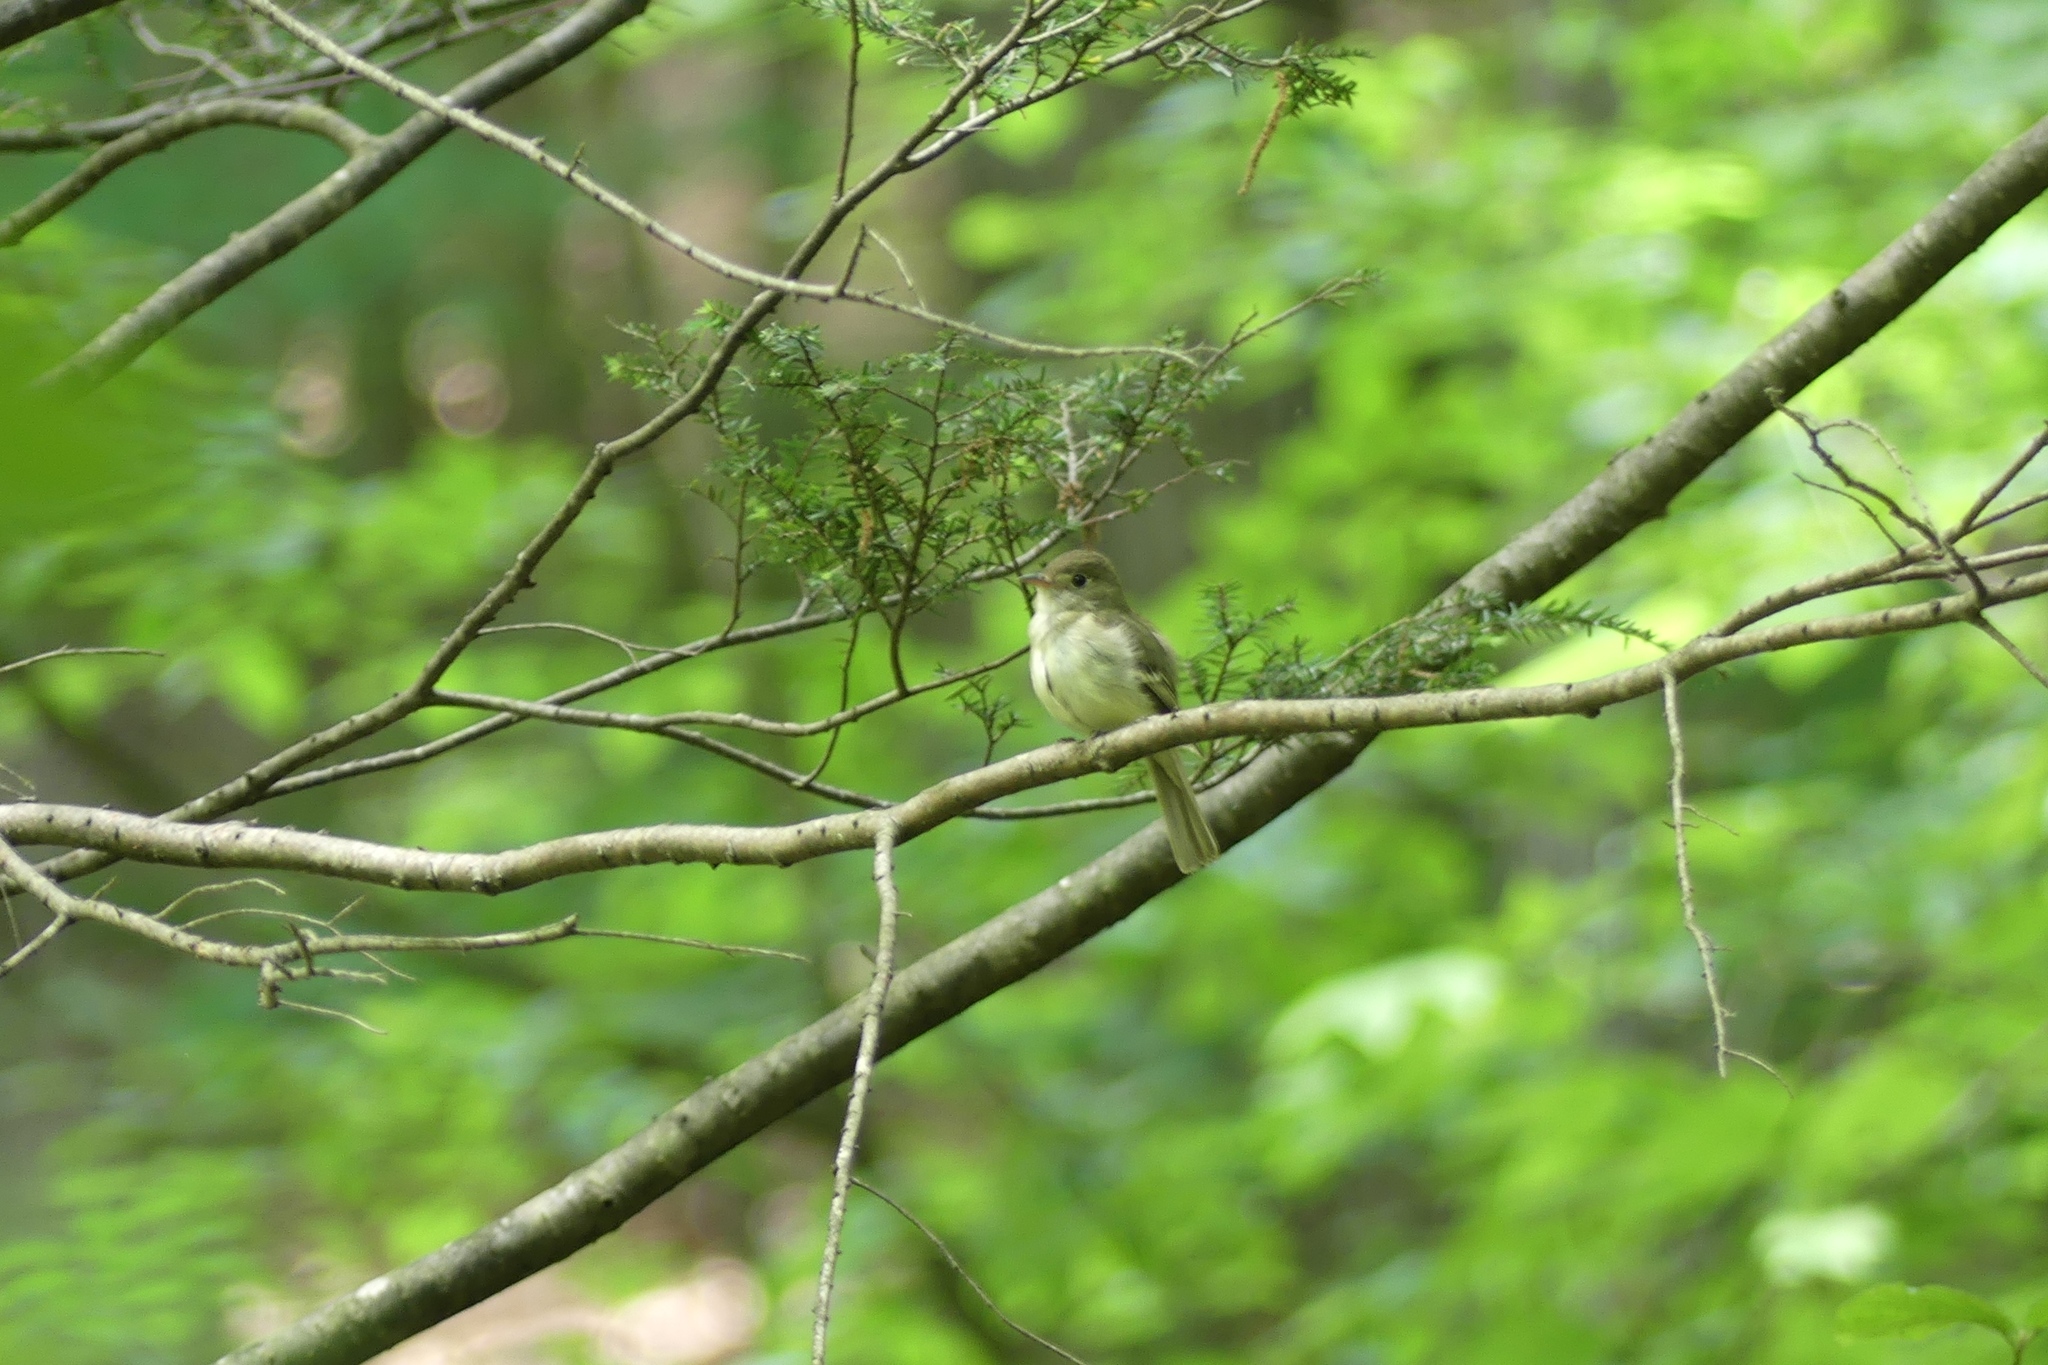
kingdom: Animalia
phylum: Chordata
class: Aves
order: Passeriformes
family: Tyrannidae
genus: Empidonax
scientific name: Empidonax
